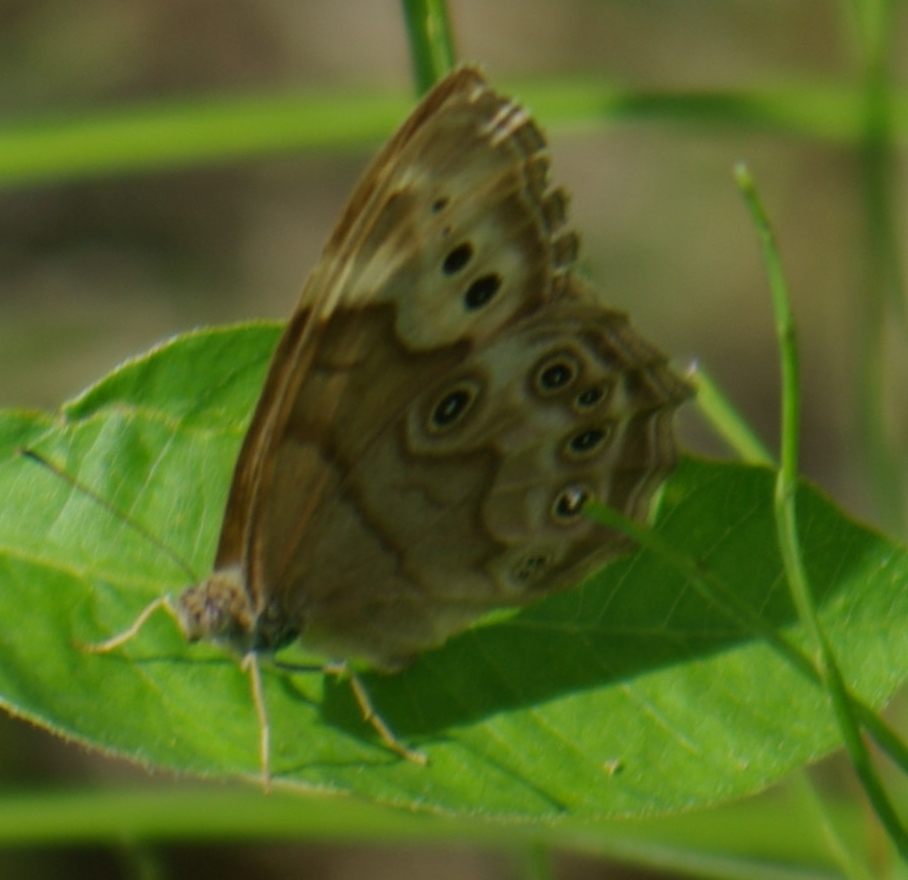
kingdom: Animalia
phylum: Arthropoda
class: Insecta
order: Lepidoptera
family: Nymphalidae
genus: Lethe
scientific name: Lethe anthedon
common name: Northern pearly-eye
